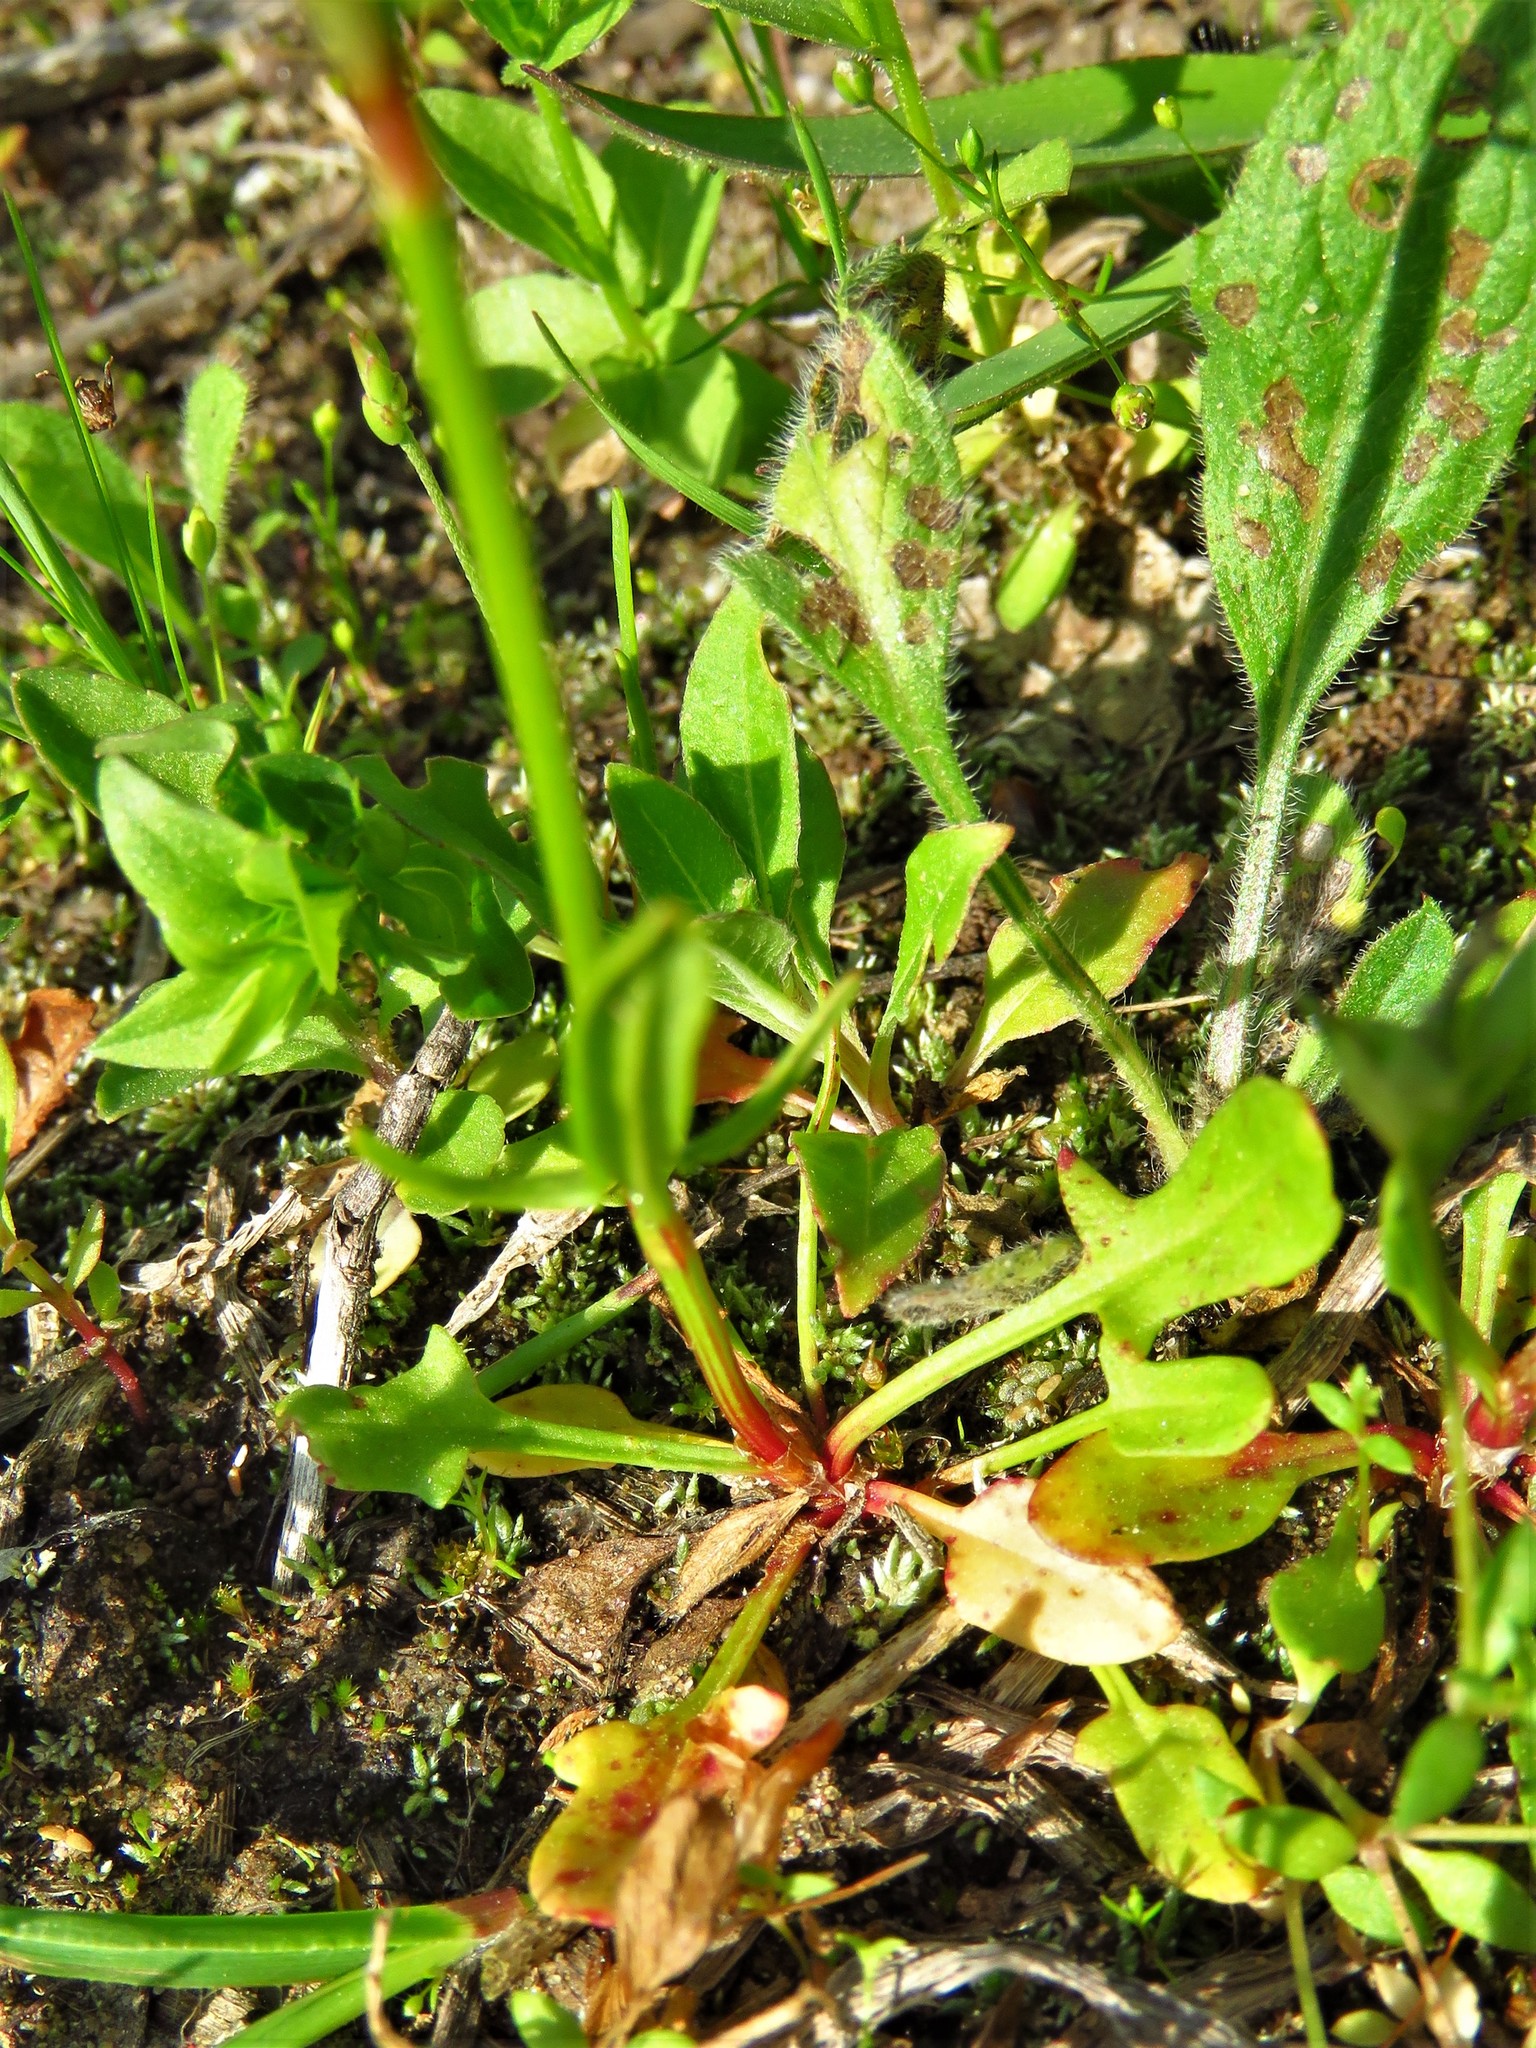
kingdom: Plantae
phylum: Tracheophyta
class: Magnoliopsida
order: Caryophyllales
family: Polygonaceae
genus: Rumex
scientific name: Rumex hastatulus
